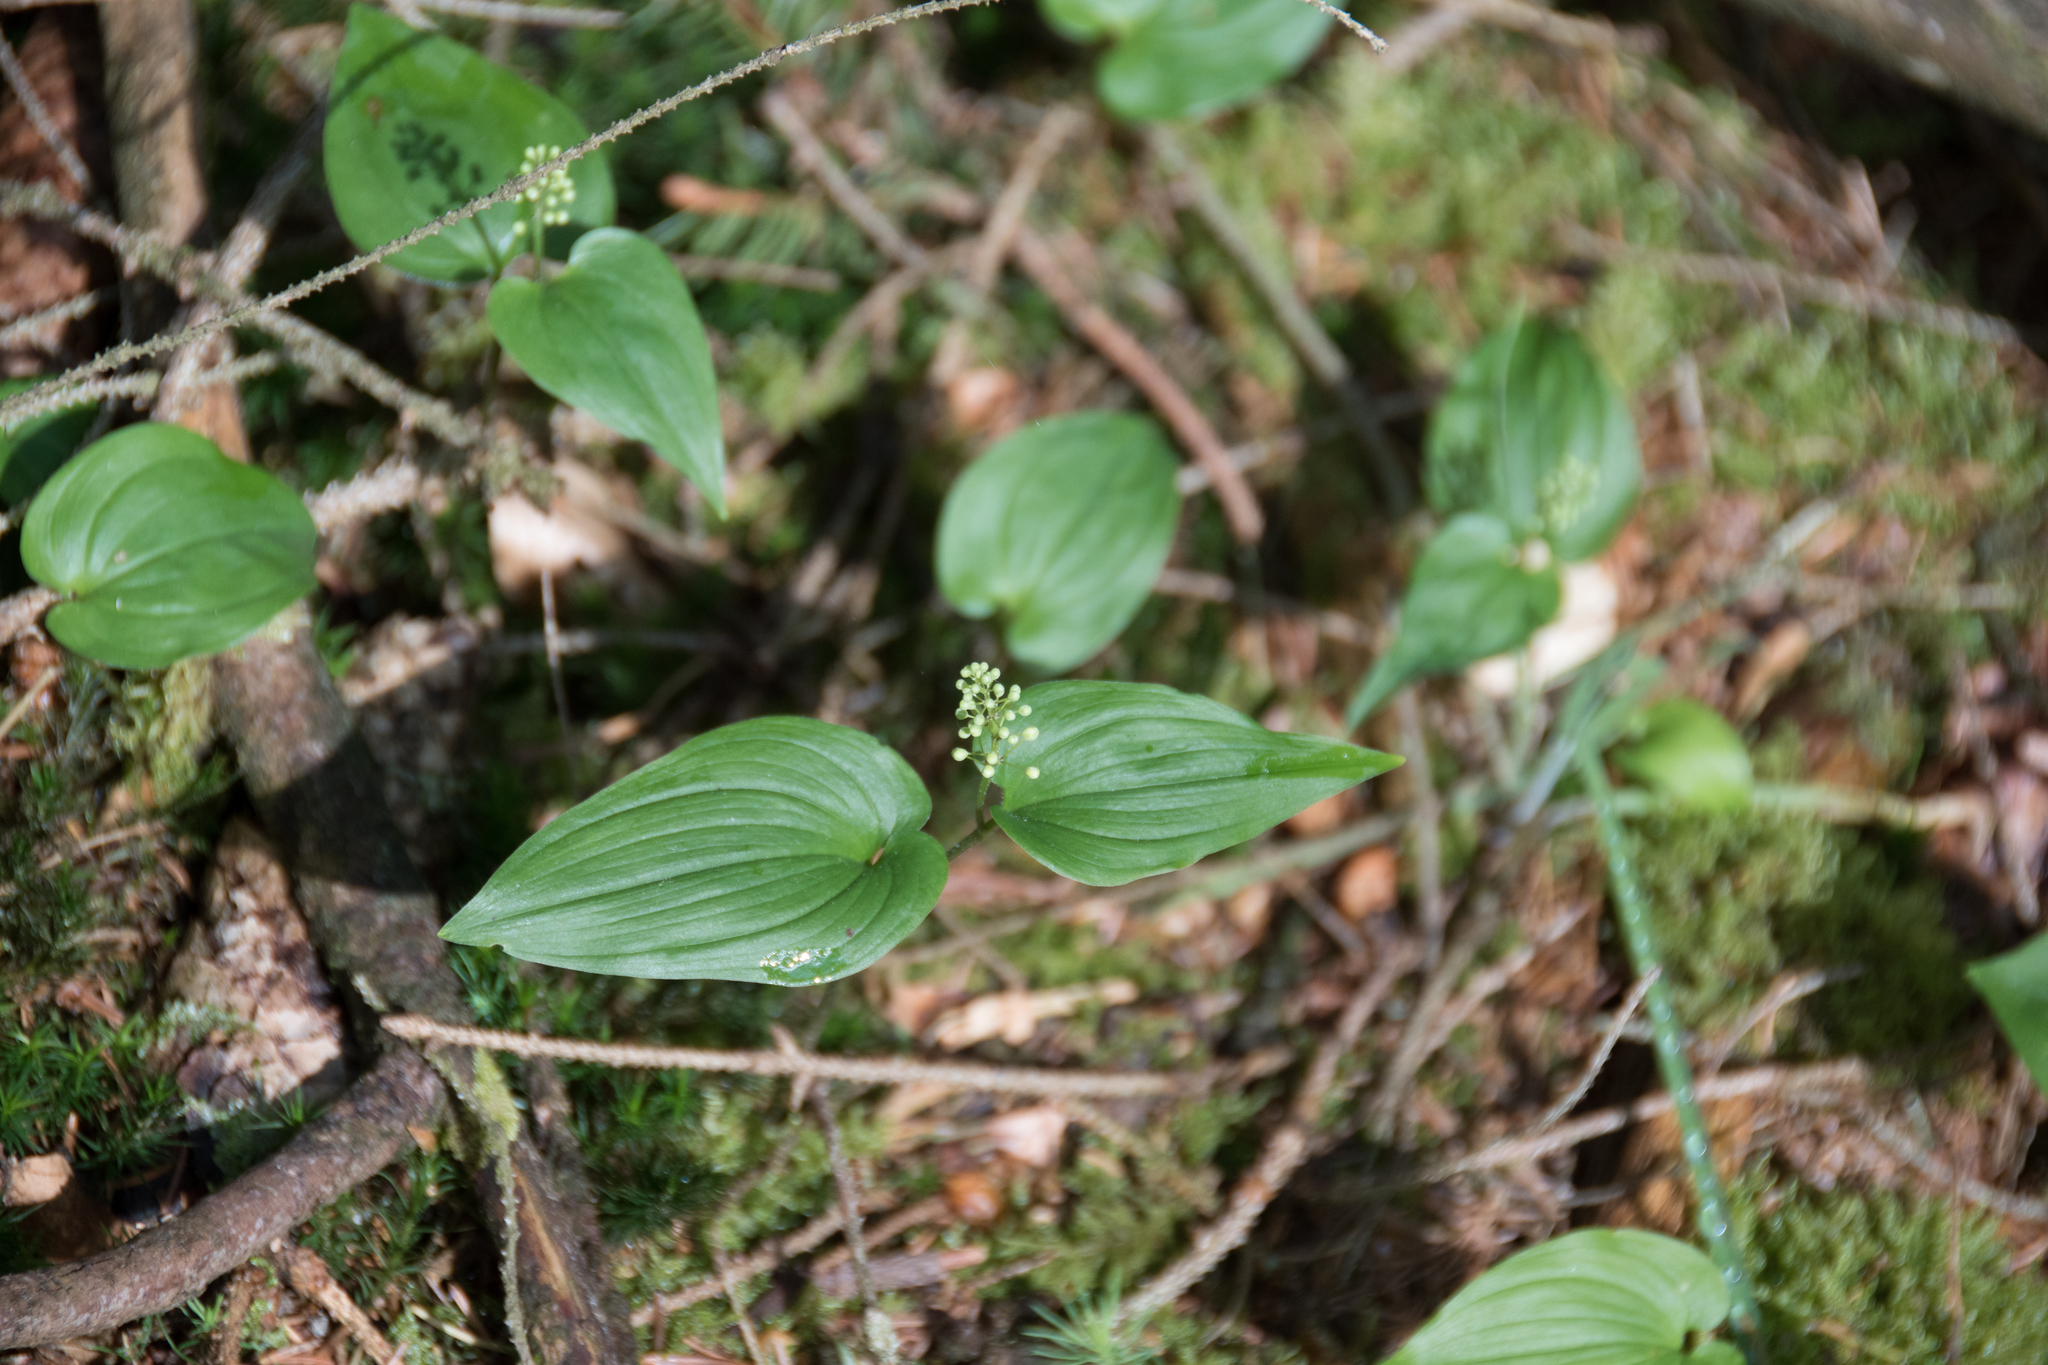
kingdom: Plantae
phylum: Tracheophyta
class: Liliopsida
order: Asparagales
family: Asparagaceae
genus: Maianthemum
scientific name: Maianthemum bifolium
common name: May lily
